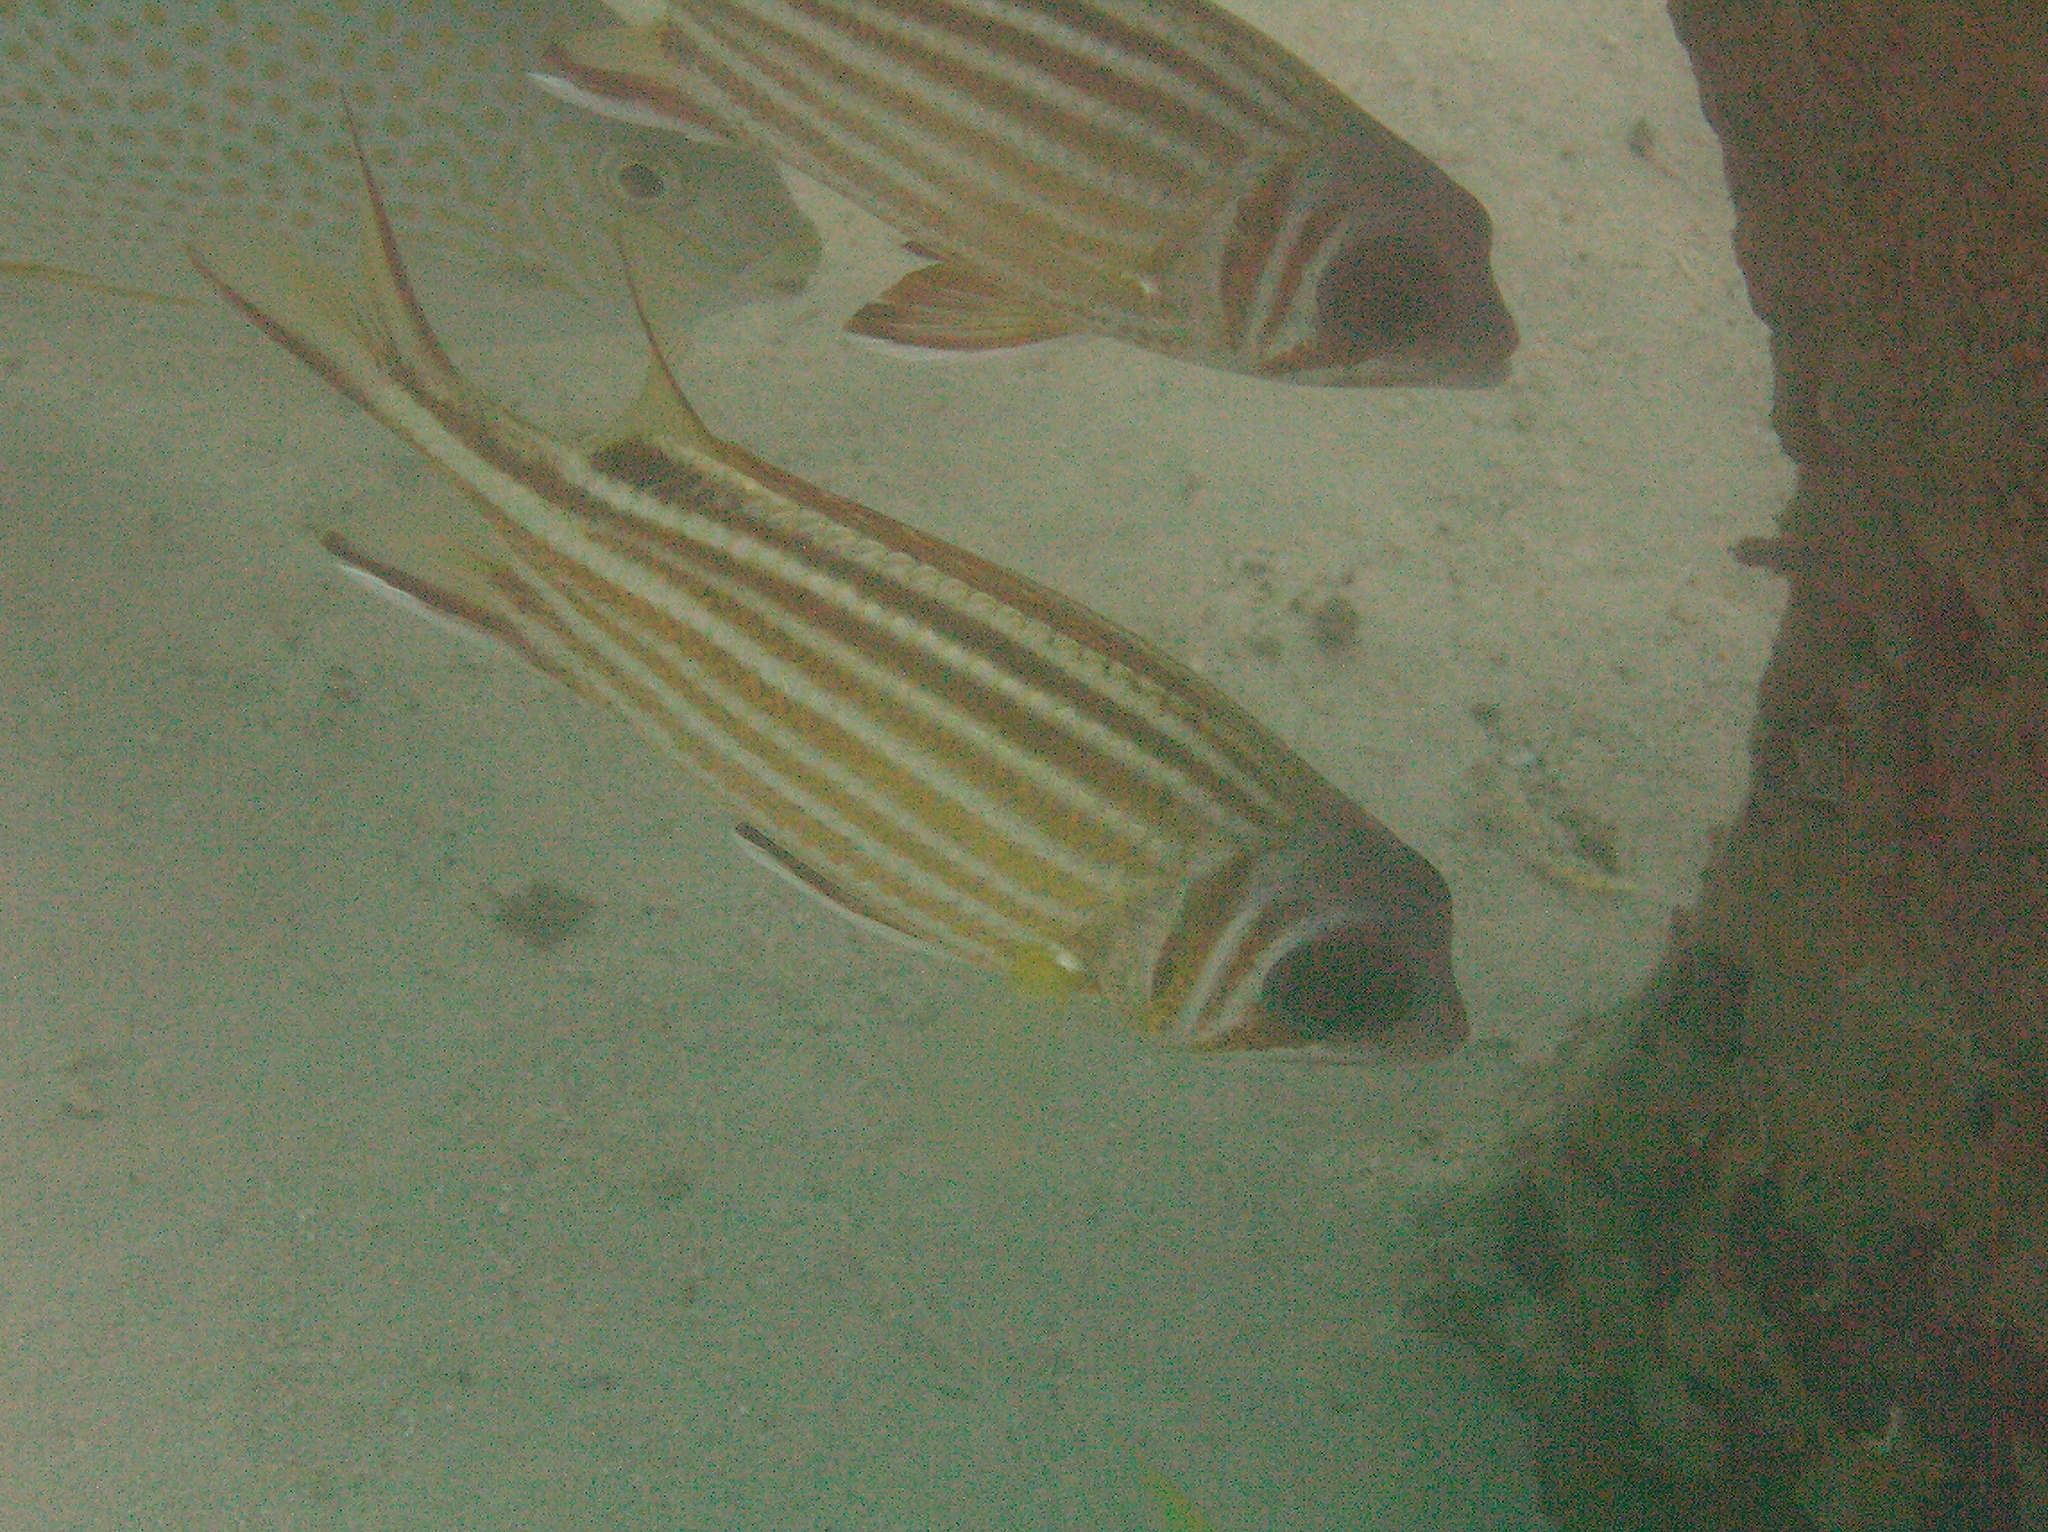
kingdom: Animalia
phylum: Chordata
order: Beryciformes
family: Holocentridae
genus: Sargocentron
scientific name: Sargocentron rubrum
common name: Redcoat
